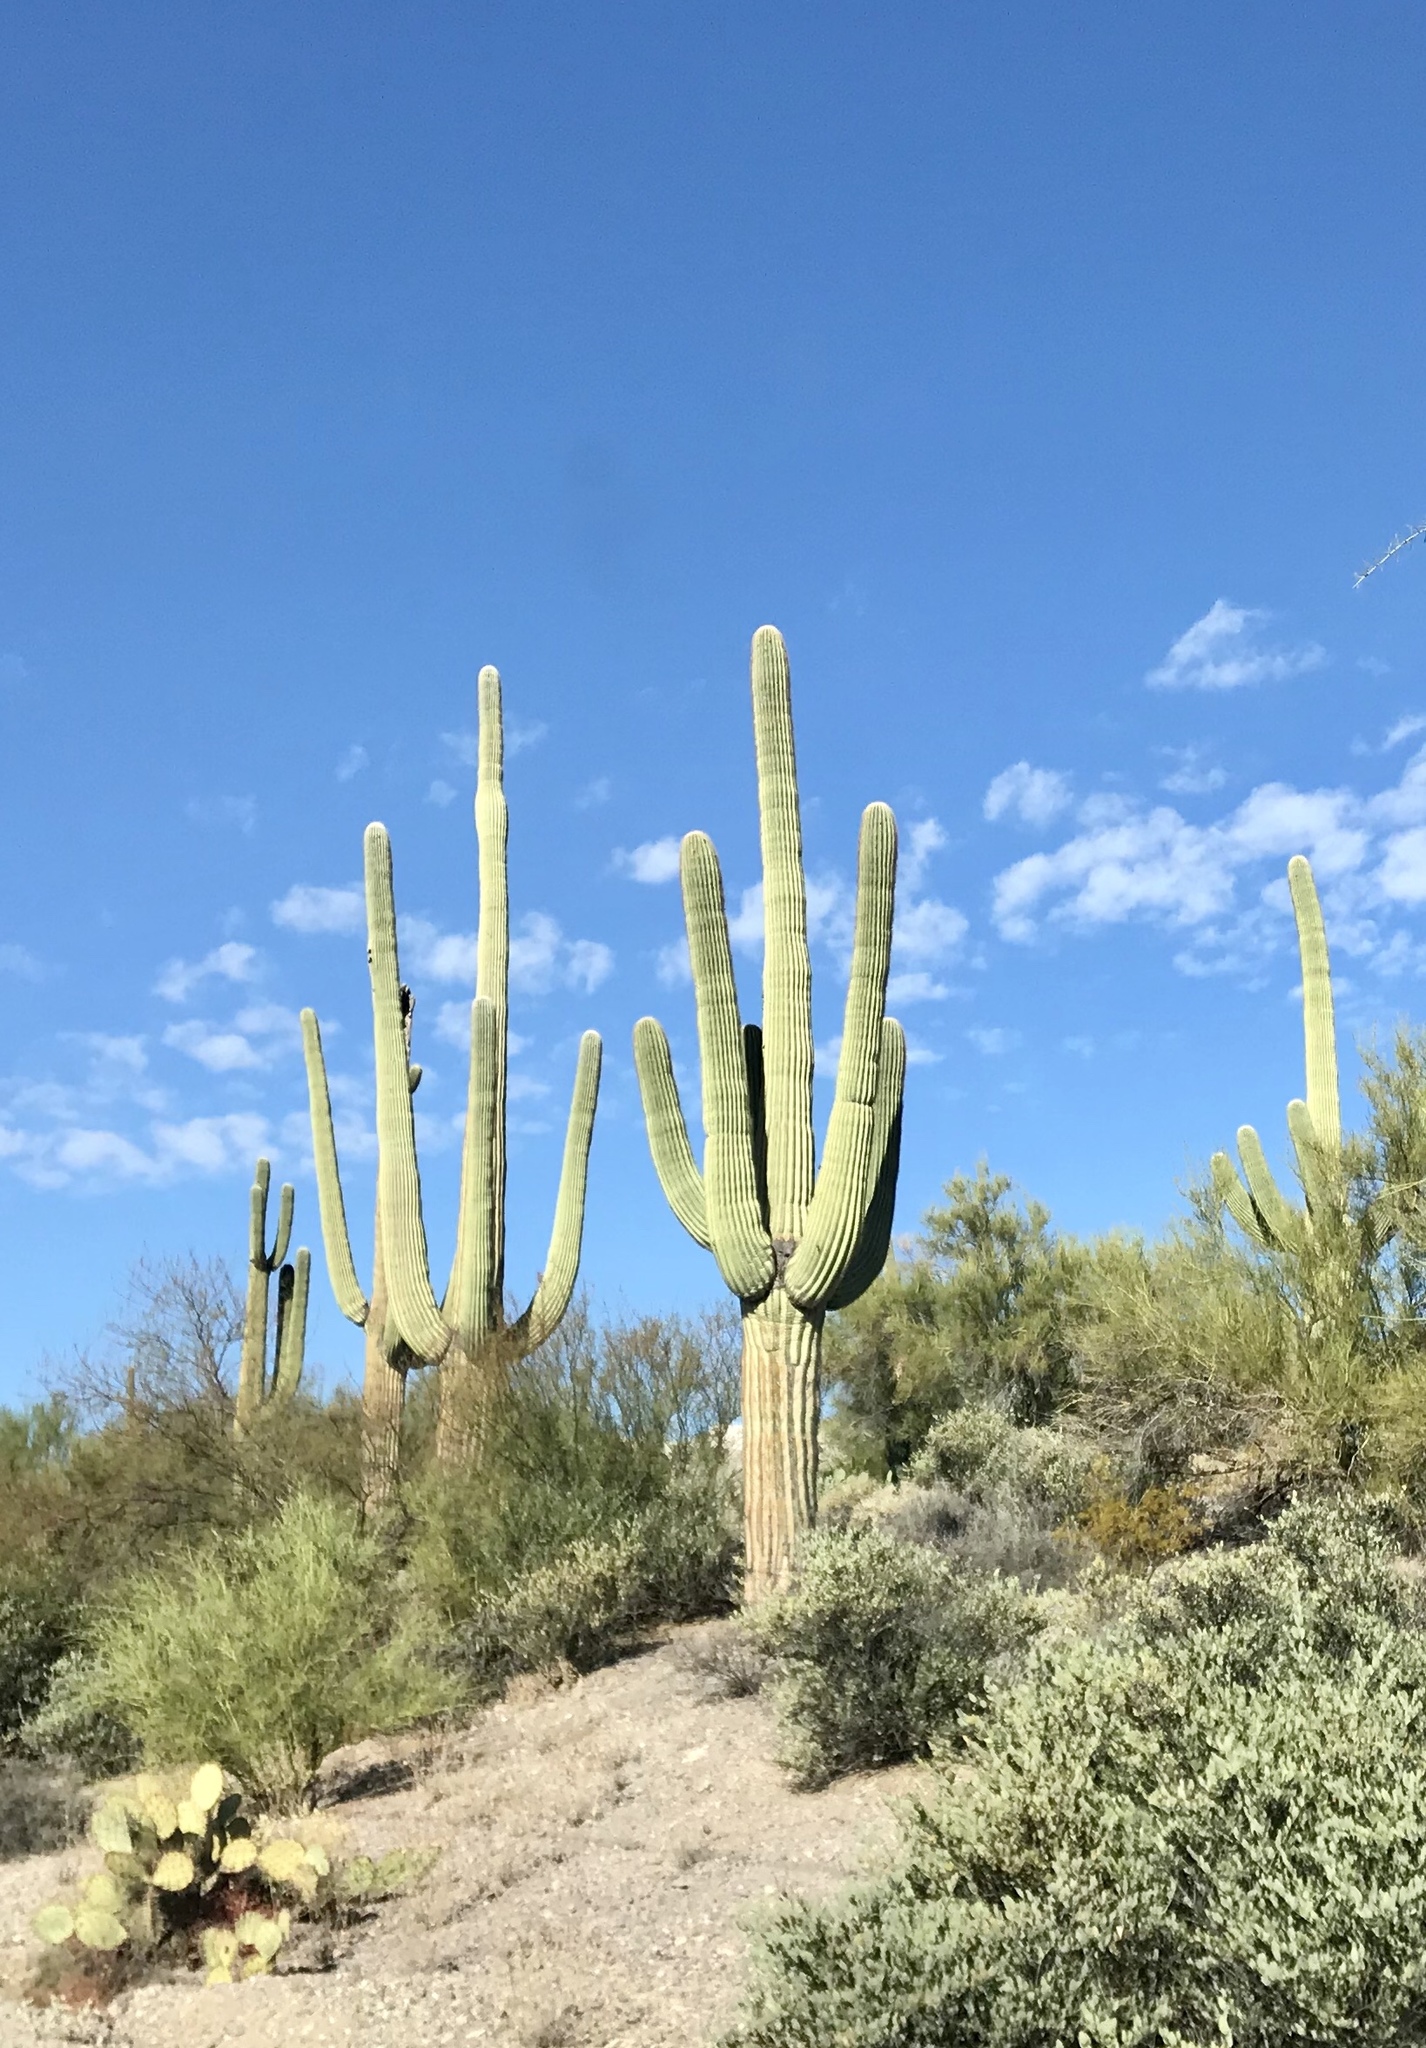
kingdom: Plantae
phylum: Tracheophyta
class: Magnoliopsida
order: Caryophyllales
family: Cactaceae
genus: Carnegiea
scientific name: Carnegiea gigantea
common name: Saguaro
